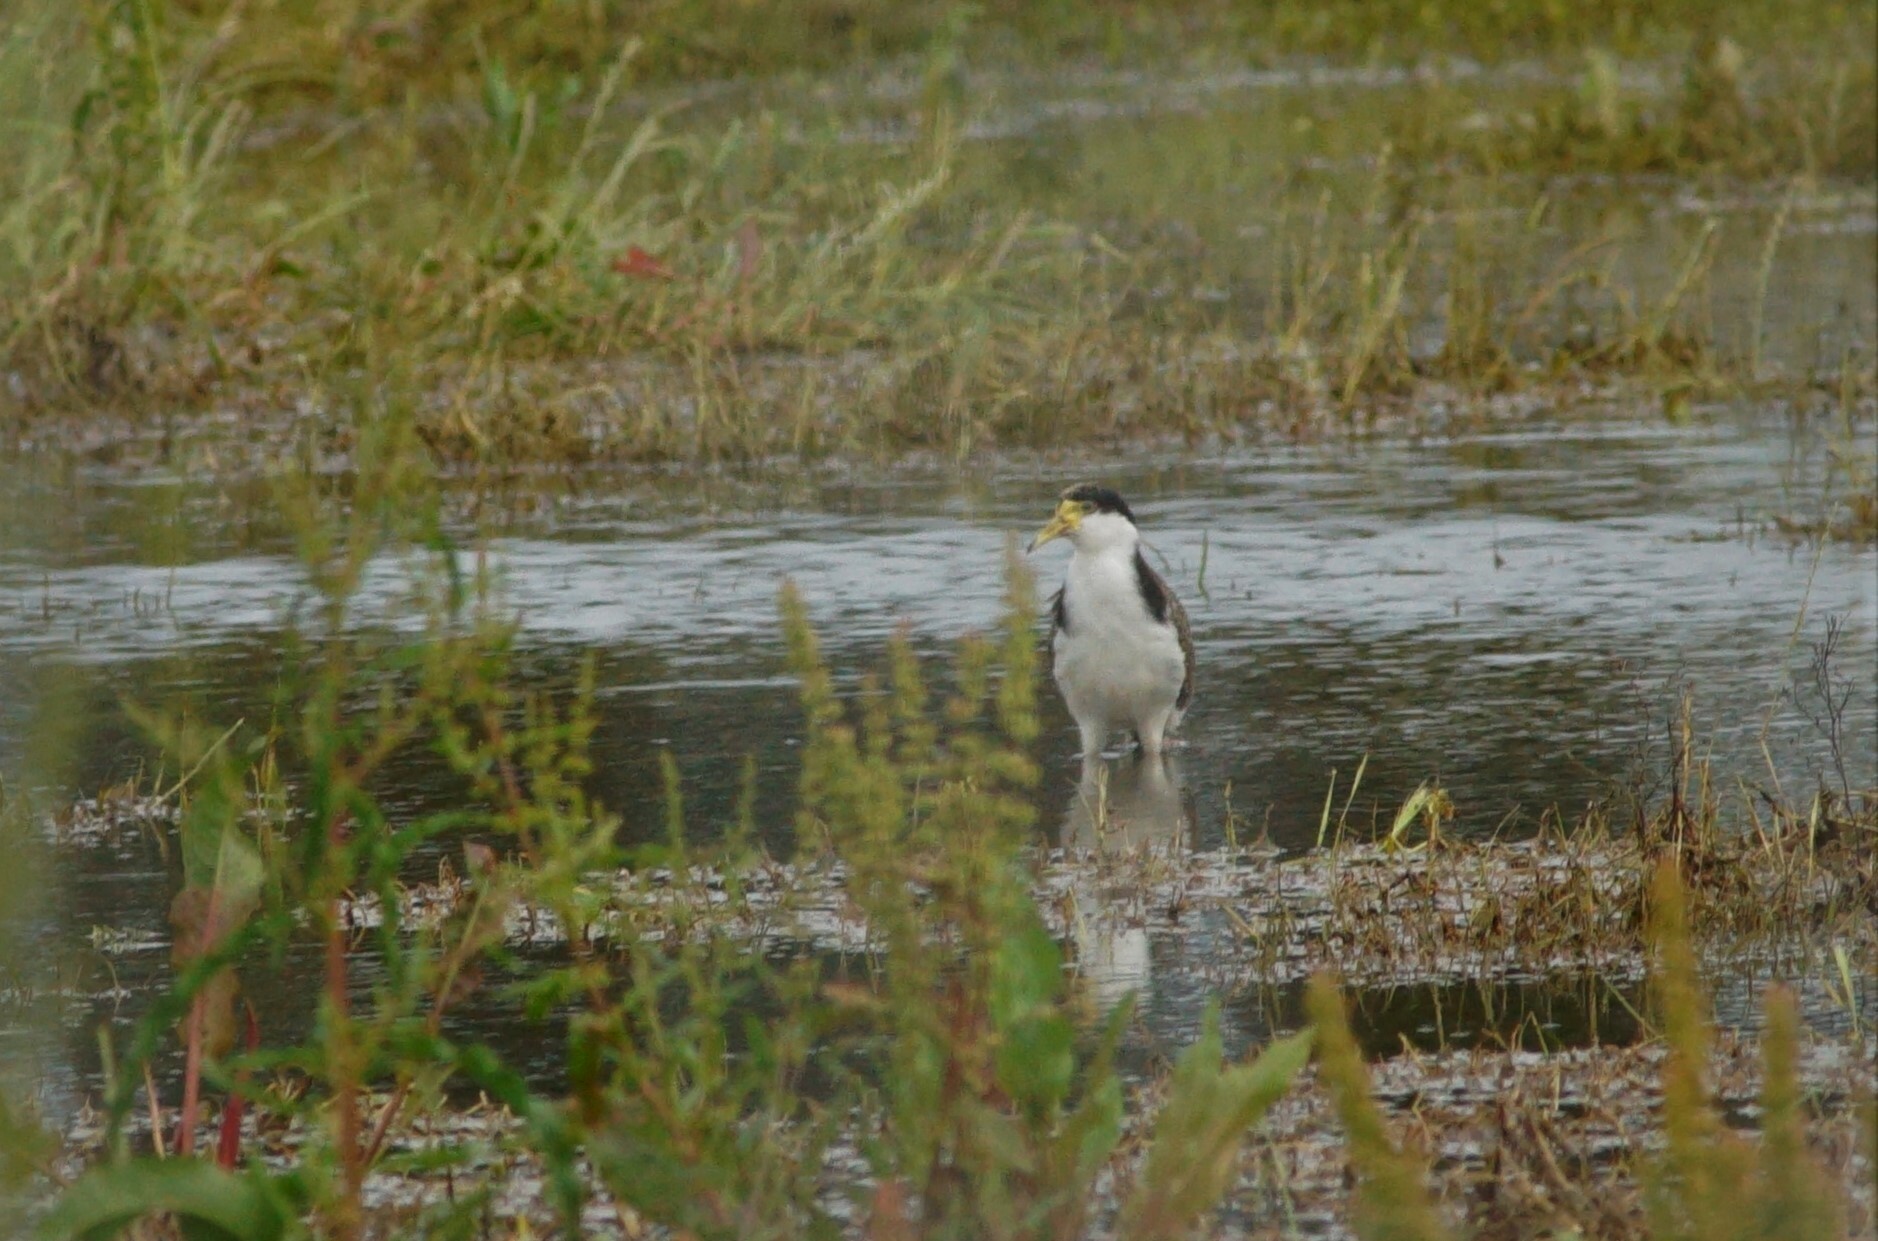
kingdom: Animalia
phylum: Chordata
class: Aves
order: Charadriiformes
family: Charadriidae
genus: Vanellus
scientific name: Vanellus miles
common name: Masked lapwing
